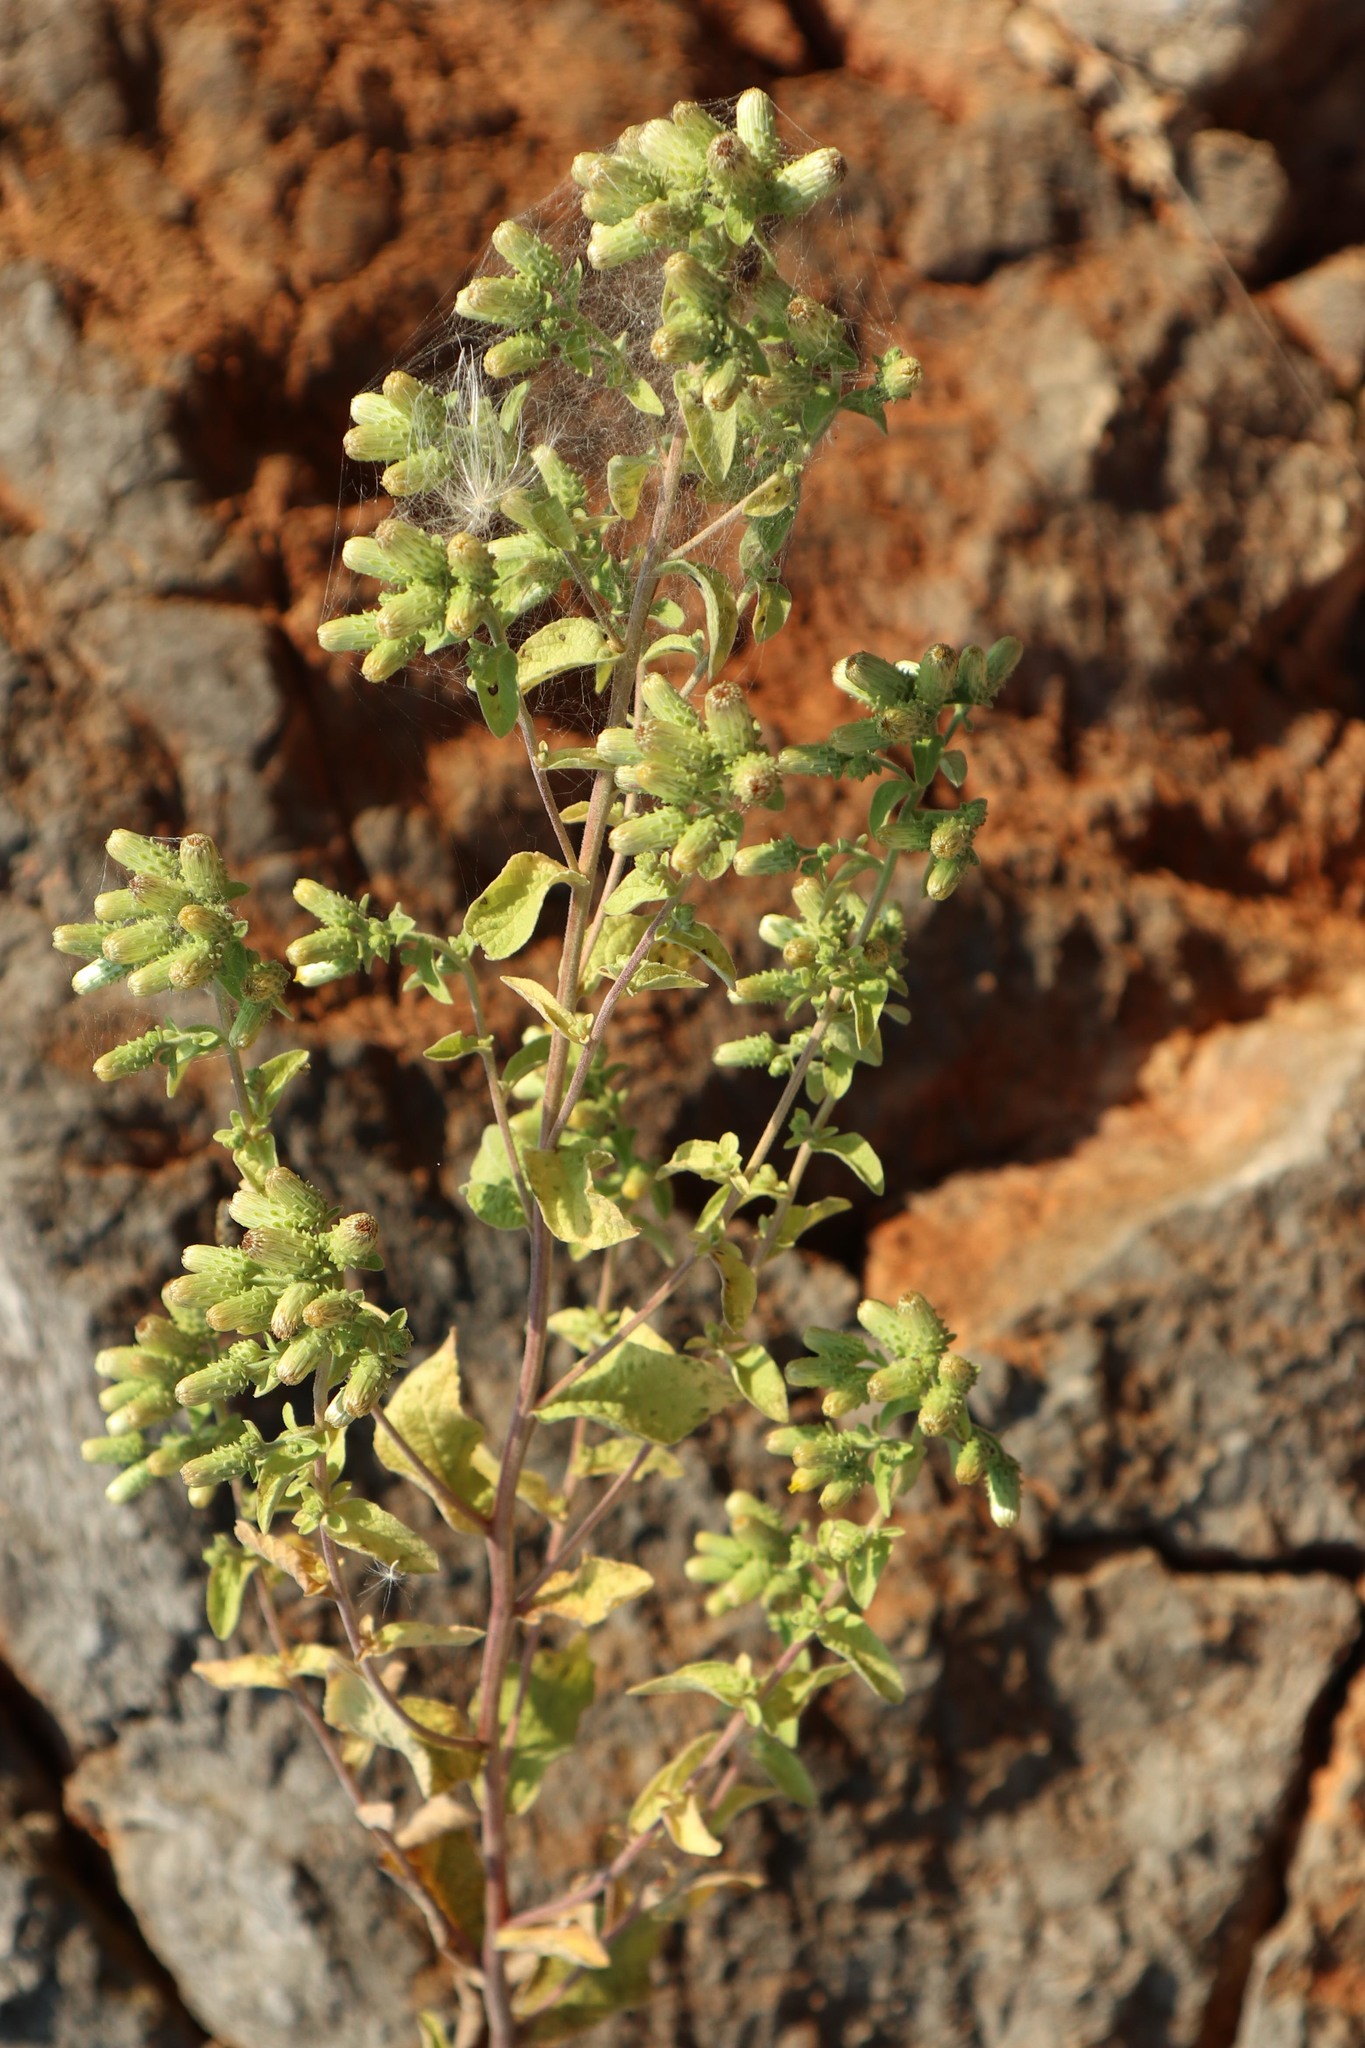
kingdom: Plantae
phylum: Tracheophyta
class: Magnoliopsida
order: Asterales
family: Asteraceae
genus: Pentanema
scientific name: Pentanema squarrosum
